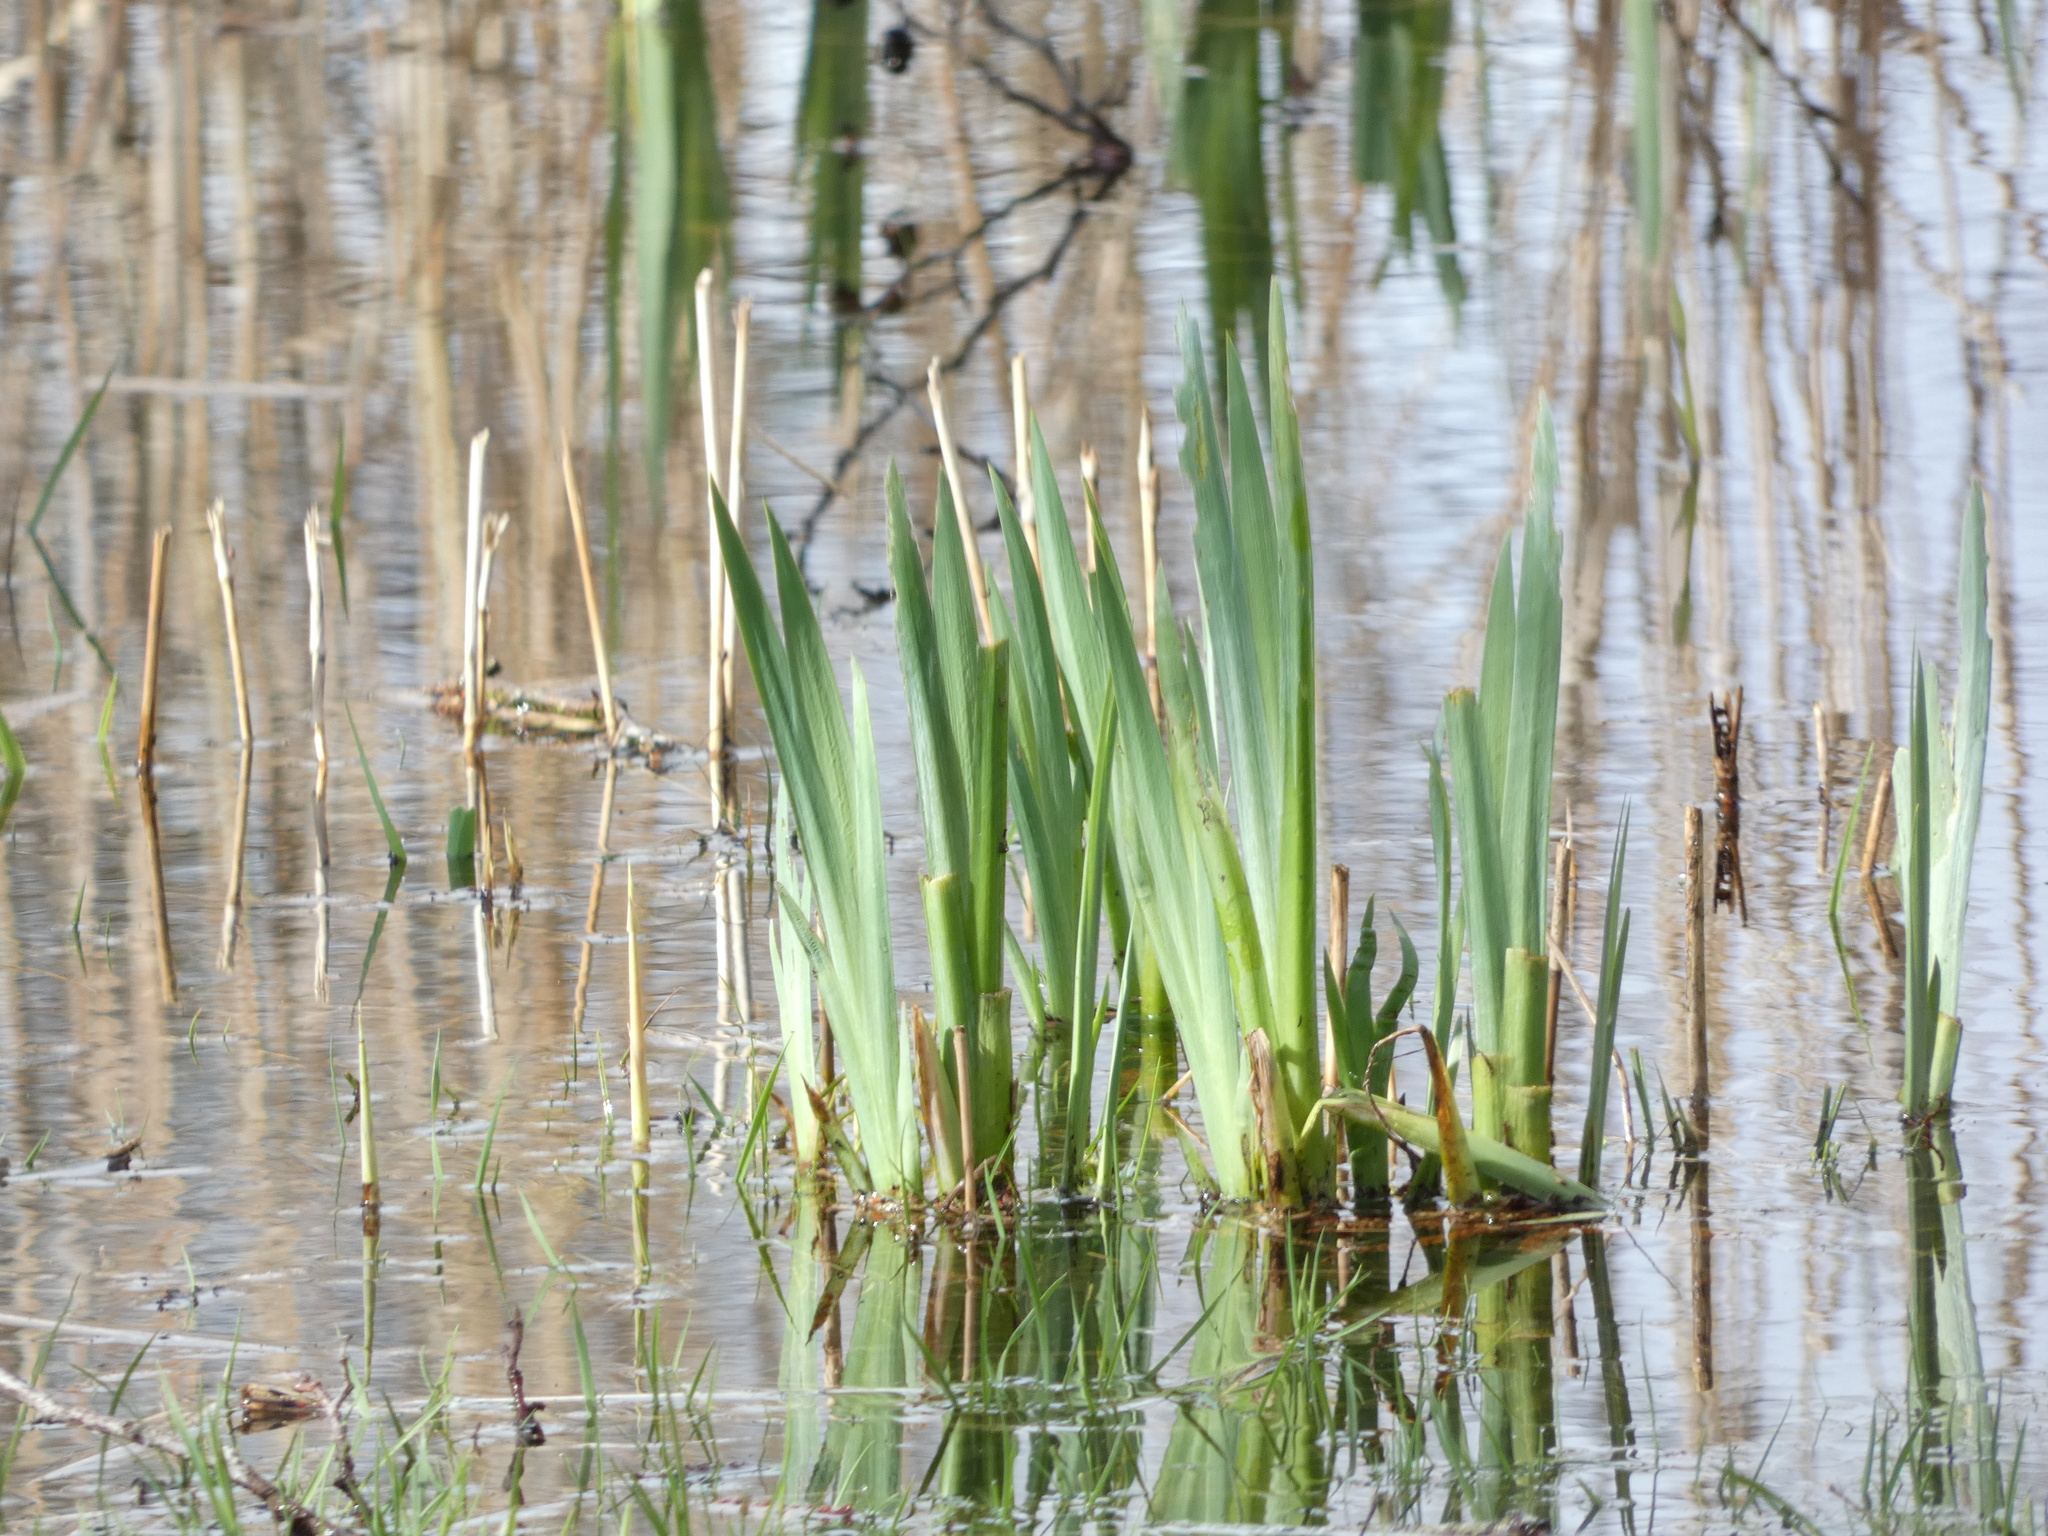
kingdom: Plantae
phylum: Tracheophyta
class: Liliopsida
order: Asparagales
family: Iridaceae
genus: Iris
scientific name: Iris pseudacorus
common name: Yellow flag
